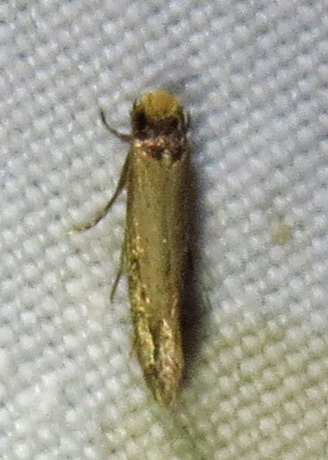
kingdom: Animalia
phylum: Arthropoda
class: Insecta
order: Lepidoptera
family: Meessiidae
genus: Homostinea
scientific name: Homostinea curviliniella
